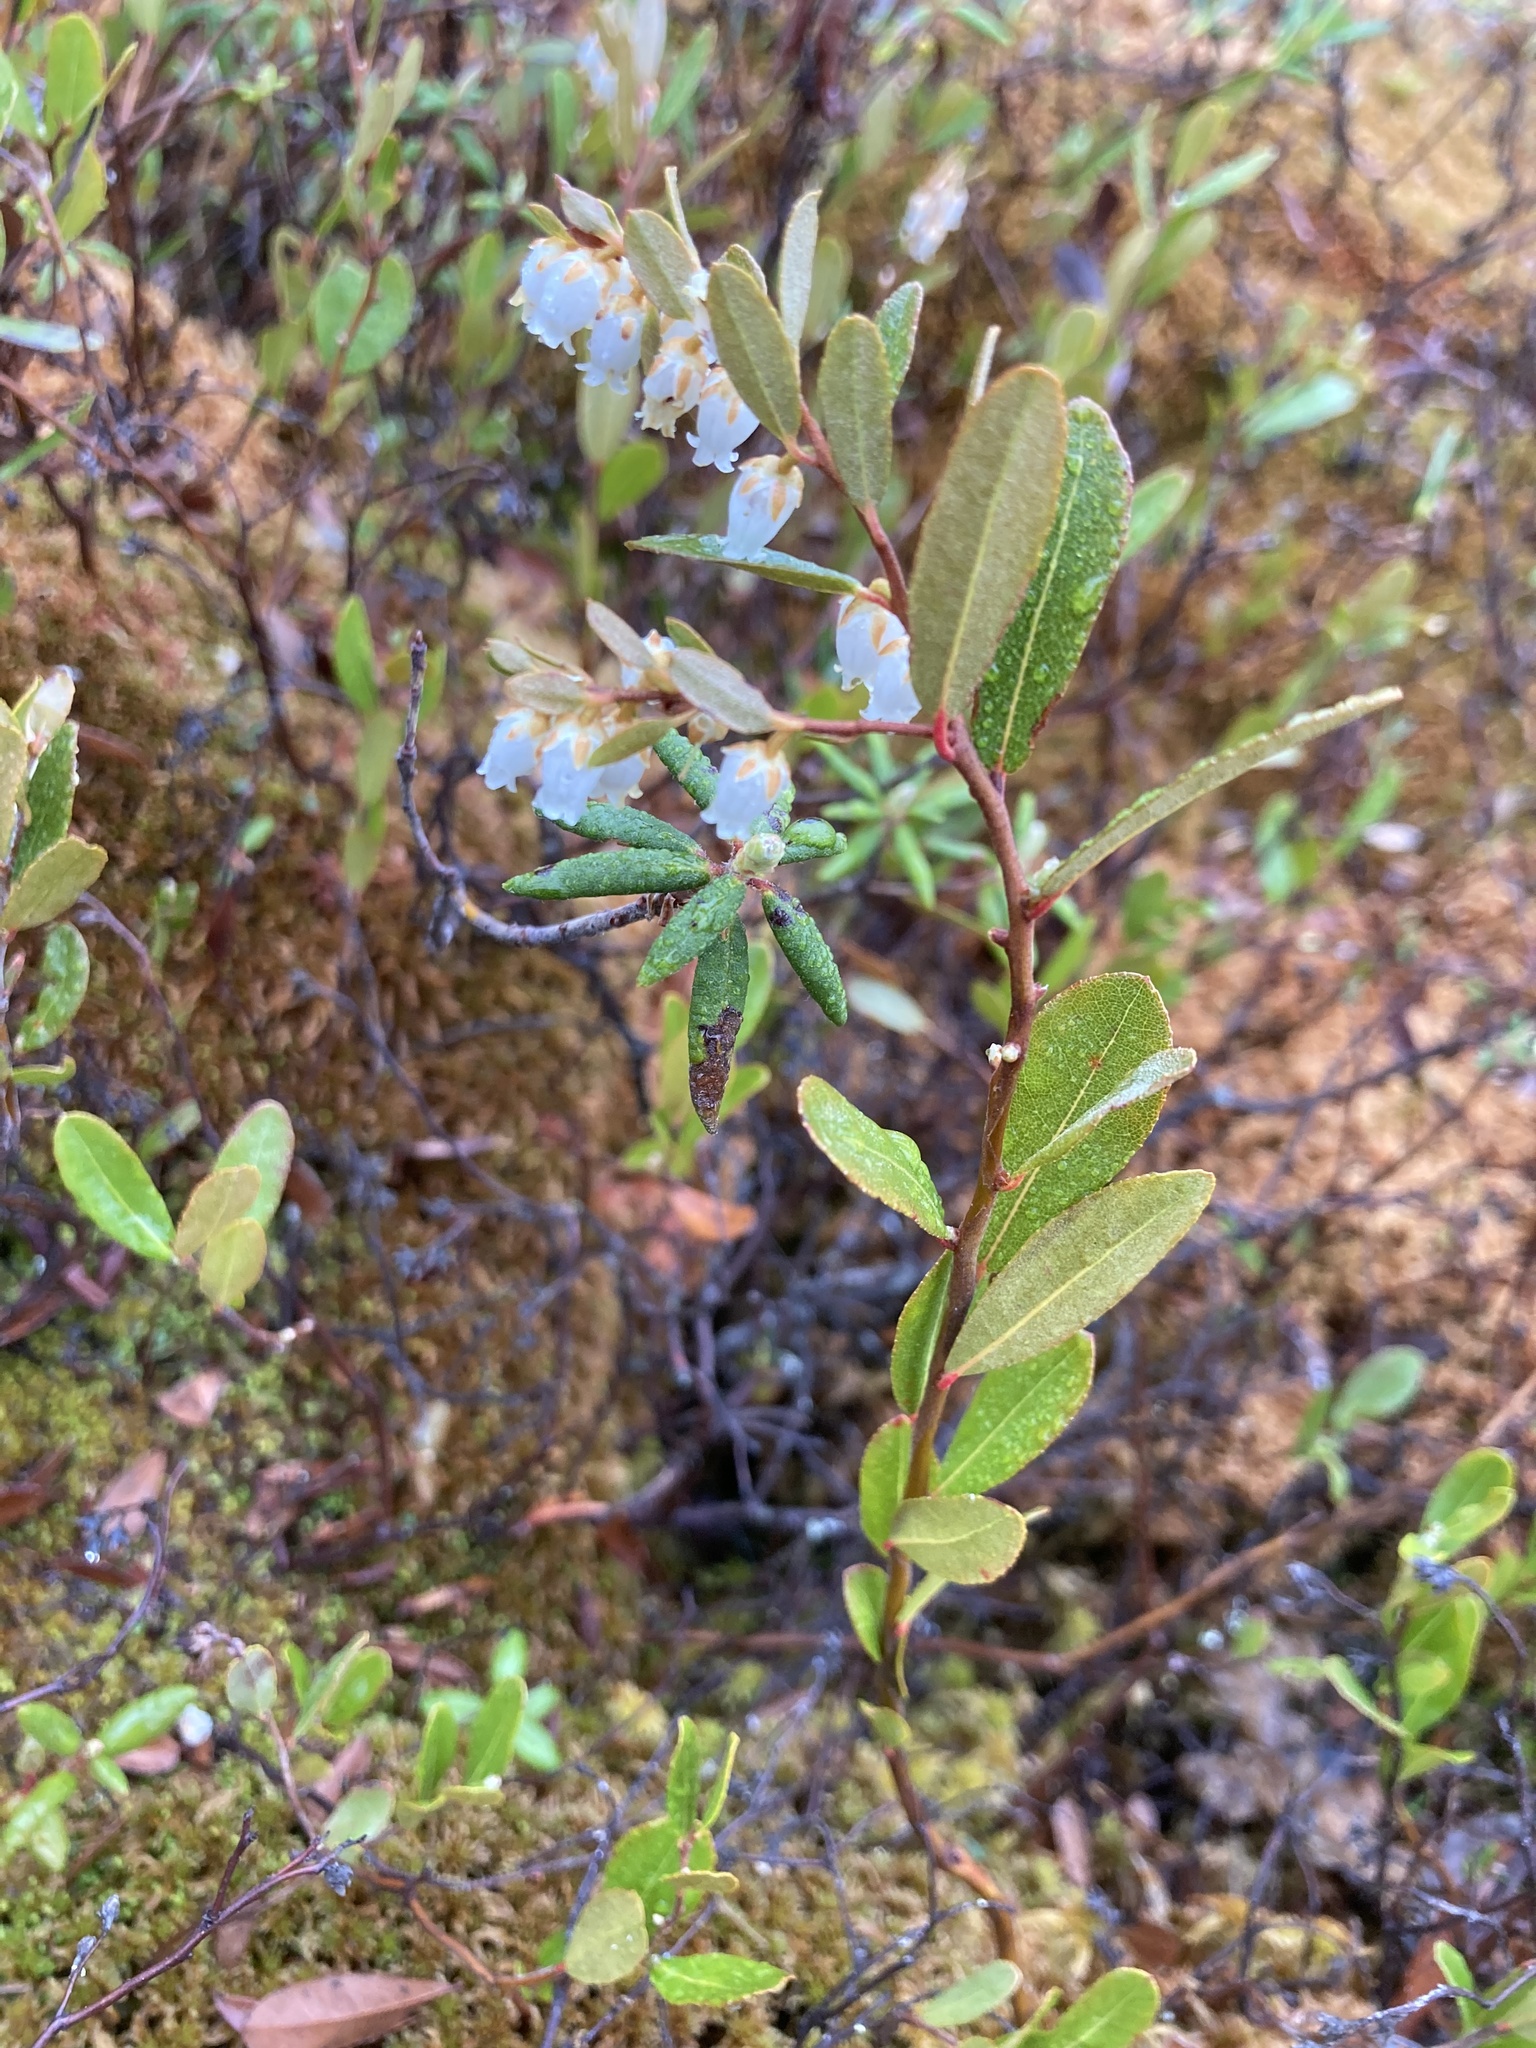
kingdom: Plantae
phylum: Tracheophyta
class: Magnoliopsida
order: Ericales
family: Ericaceae
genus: Chamaedaphne
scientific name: Chamaedaphne calyculata
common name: Leatherleaf
